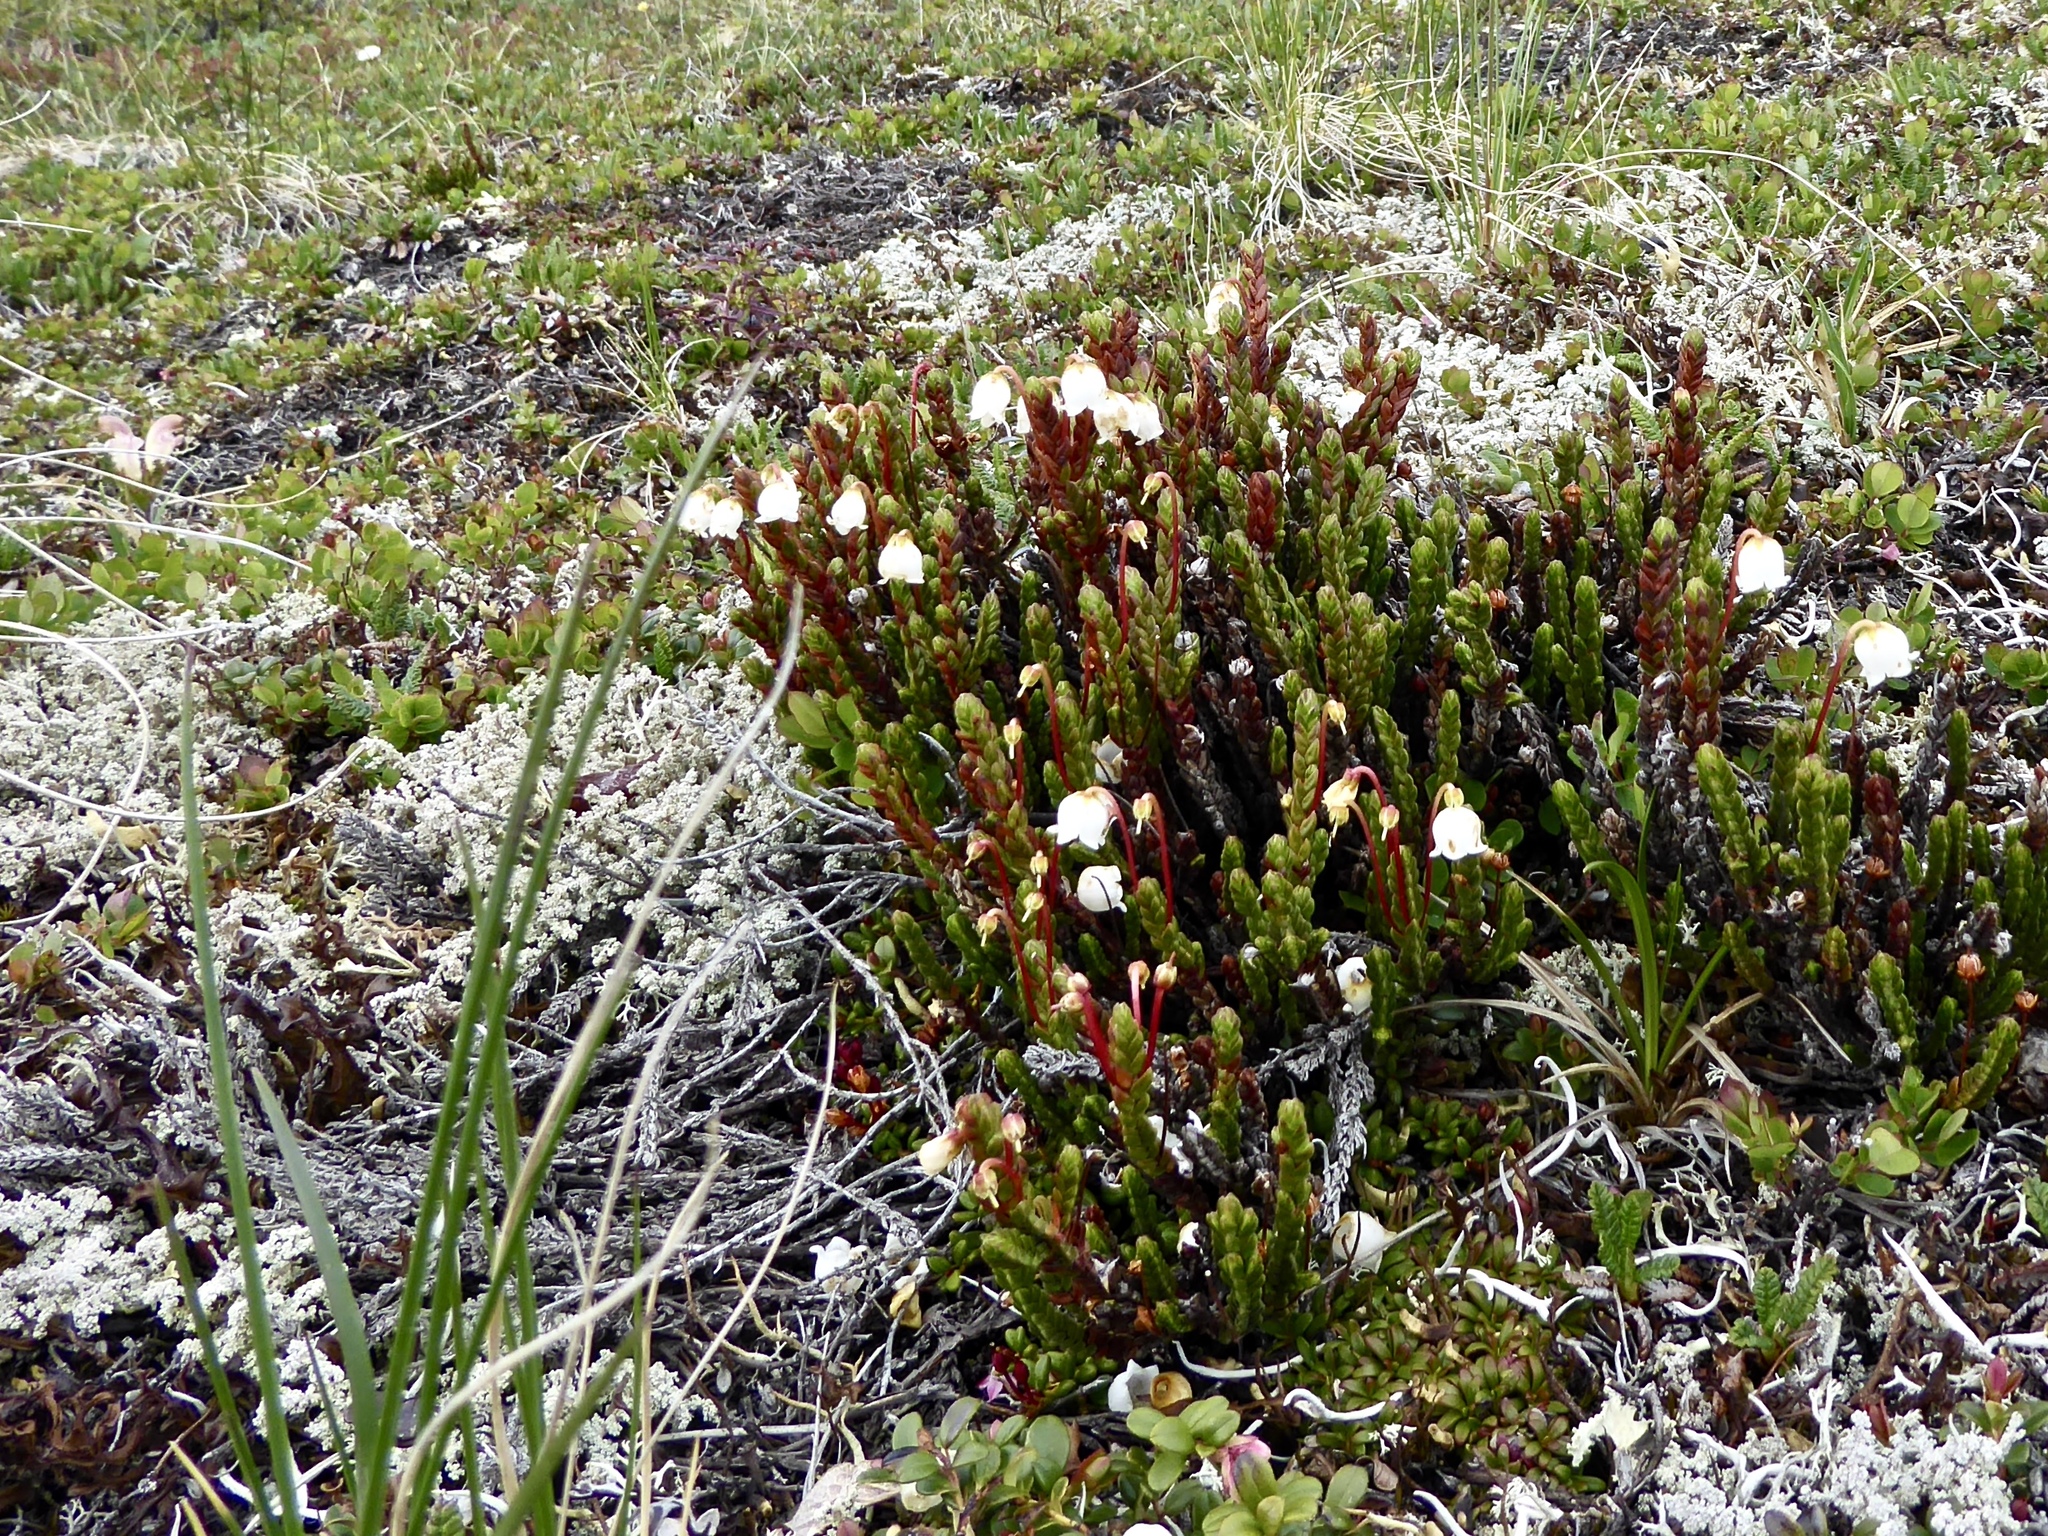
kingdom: Plantae
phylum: Tracheophyta
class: Magnoliopsida
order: Ericales
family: Ericaceae
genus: Cassiope
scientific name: Cassiope tetragona
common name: Arctic bell heather
